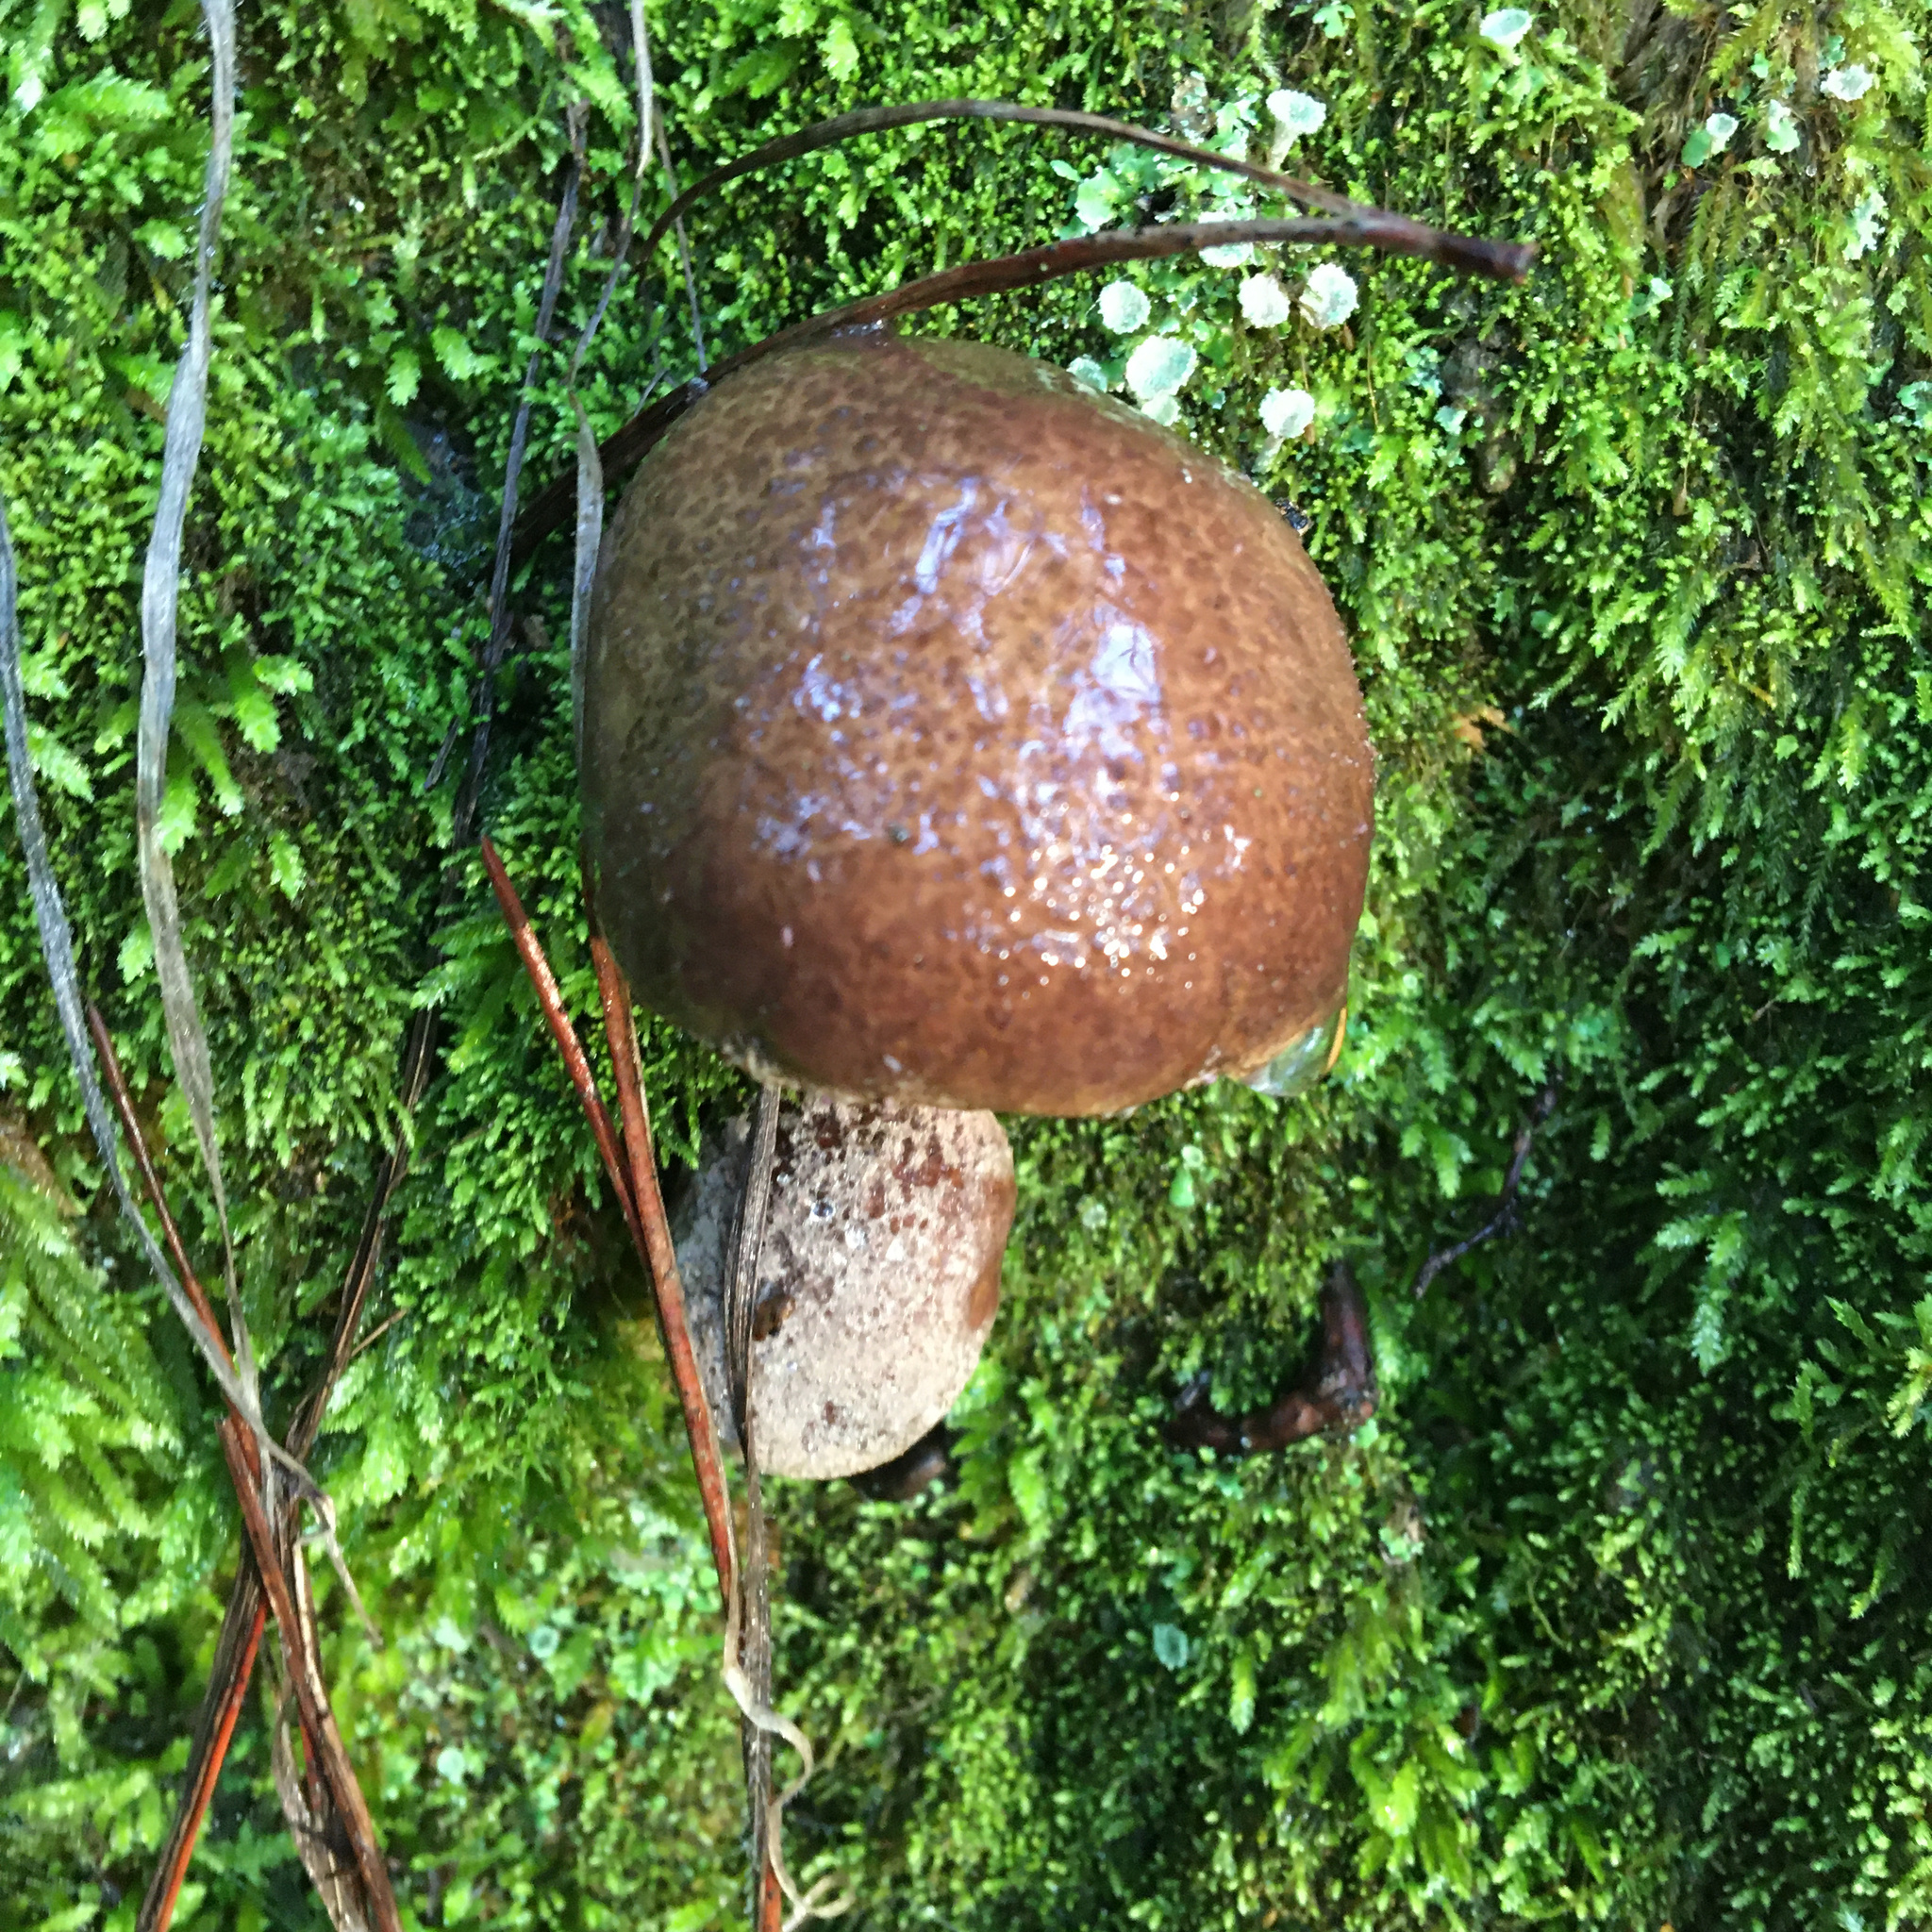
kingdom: Fungi
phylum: Basidiomycota
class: Agaricomycetes
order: Boletales
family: Suillaceae
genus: Suillus
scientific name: Suillus fuscotomentosus
